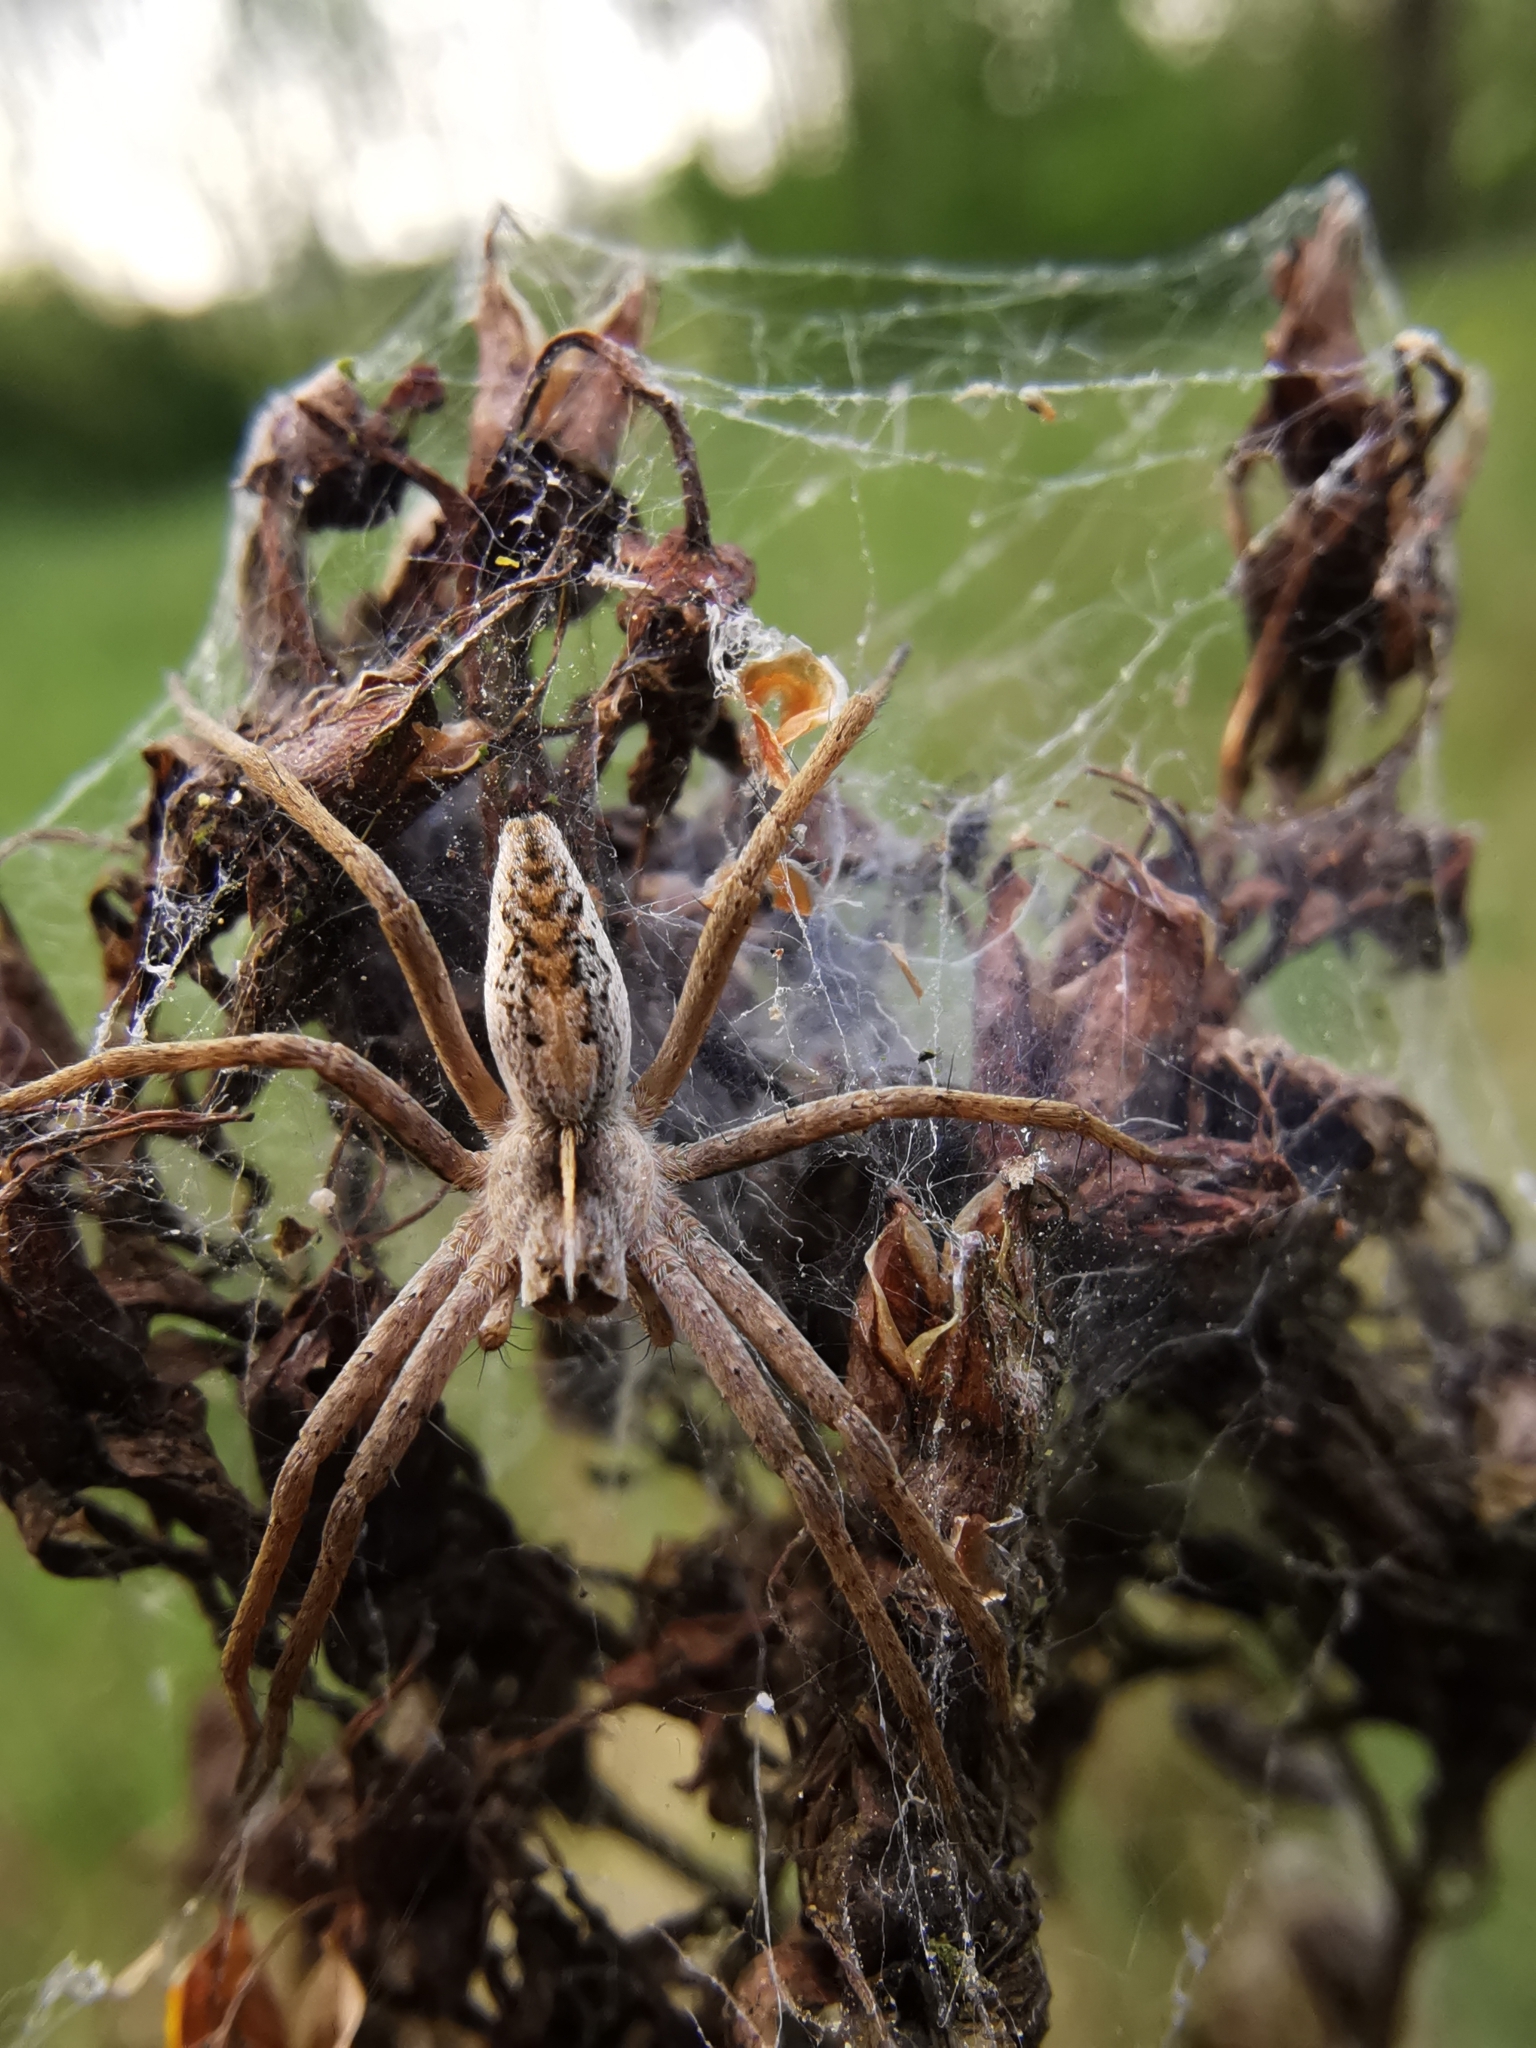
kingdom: Animalia
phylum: Arthropoda
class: Arachnida
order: Araneae
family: Pisauridae
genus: Pisaura
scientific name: Pisaura mirabilis
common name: Tent spider
